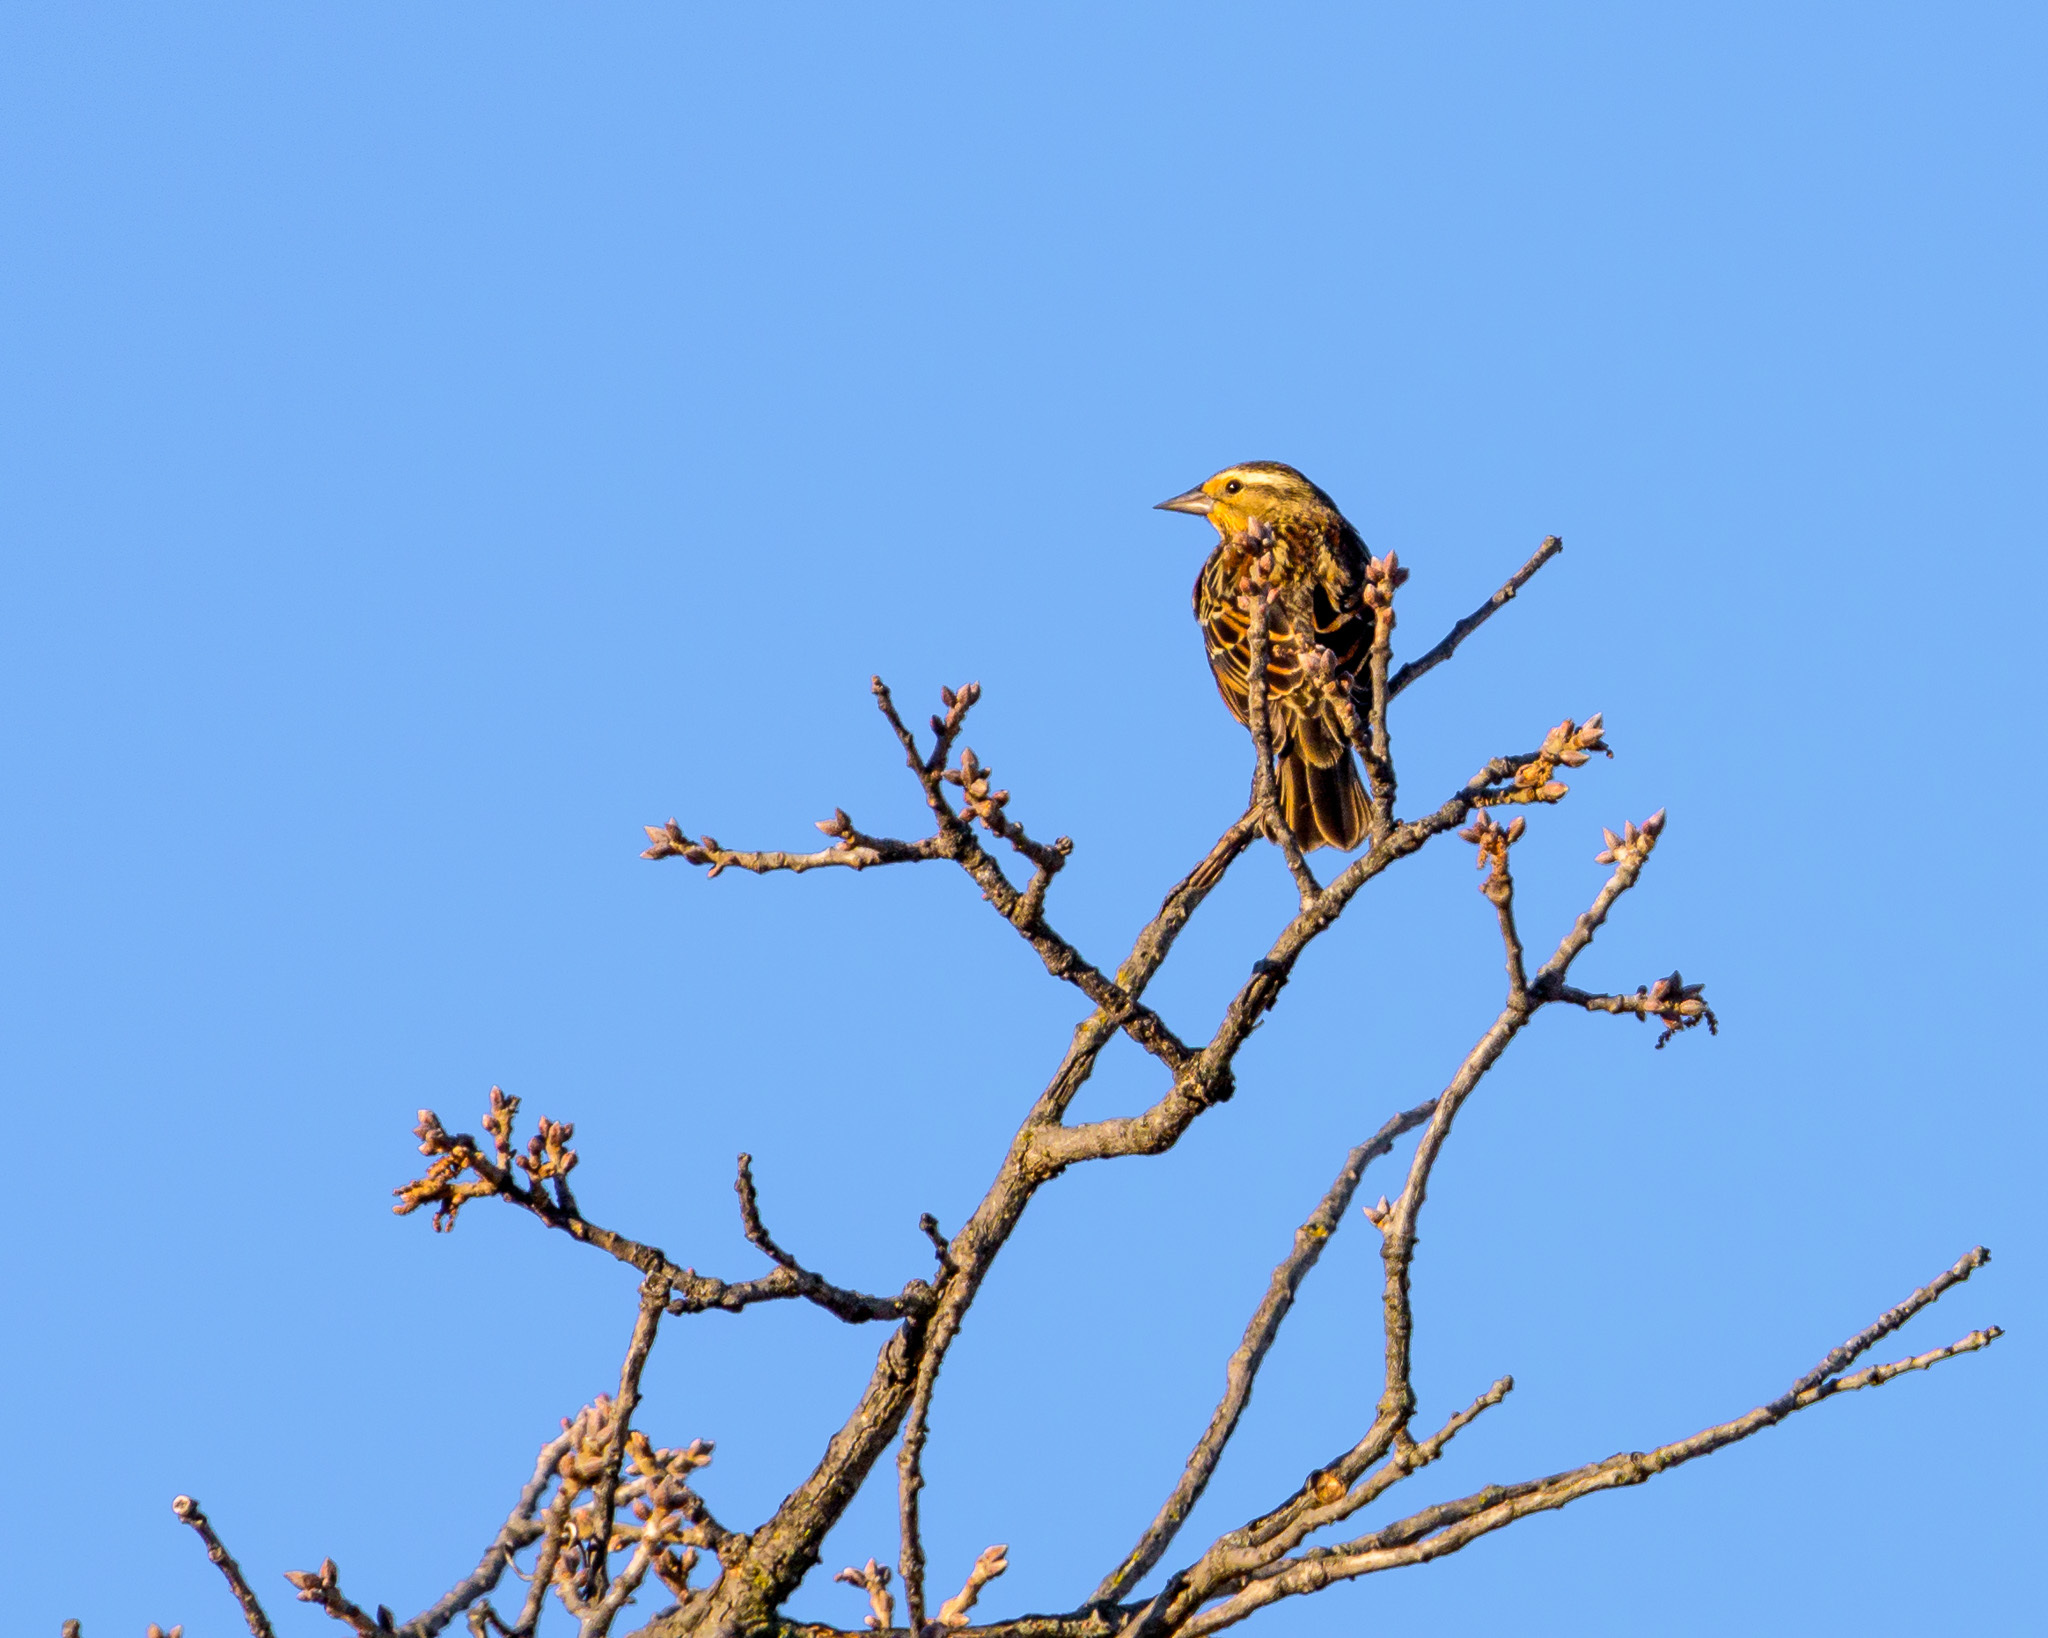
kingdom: Animalia
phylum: Chordata
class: Aves
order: Passeriformes
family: Icteridae
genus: Sturnella
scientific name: Sturnella magna
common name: Eastern meadowlark
